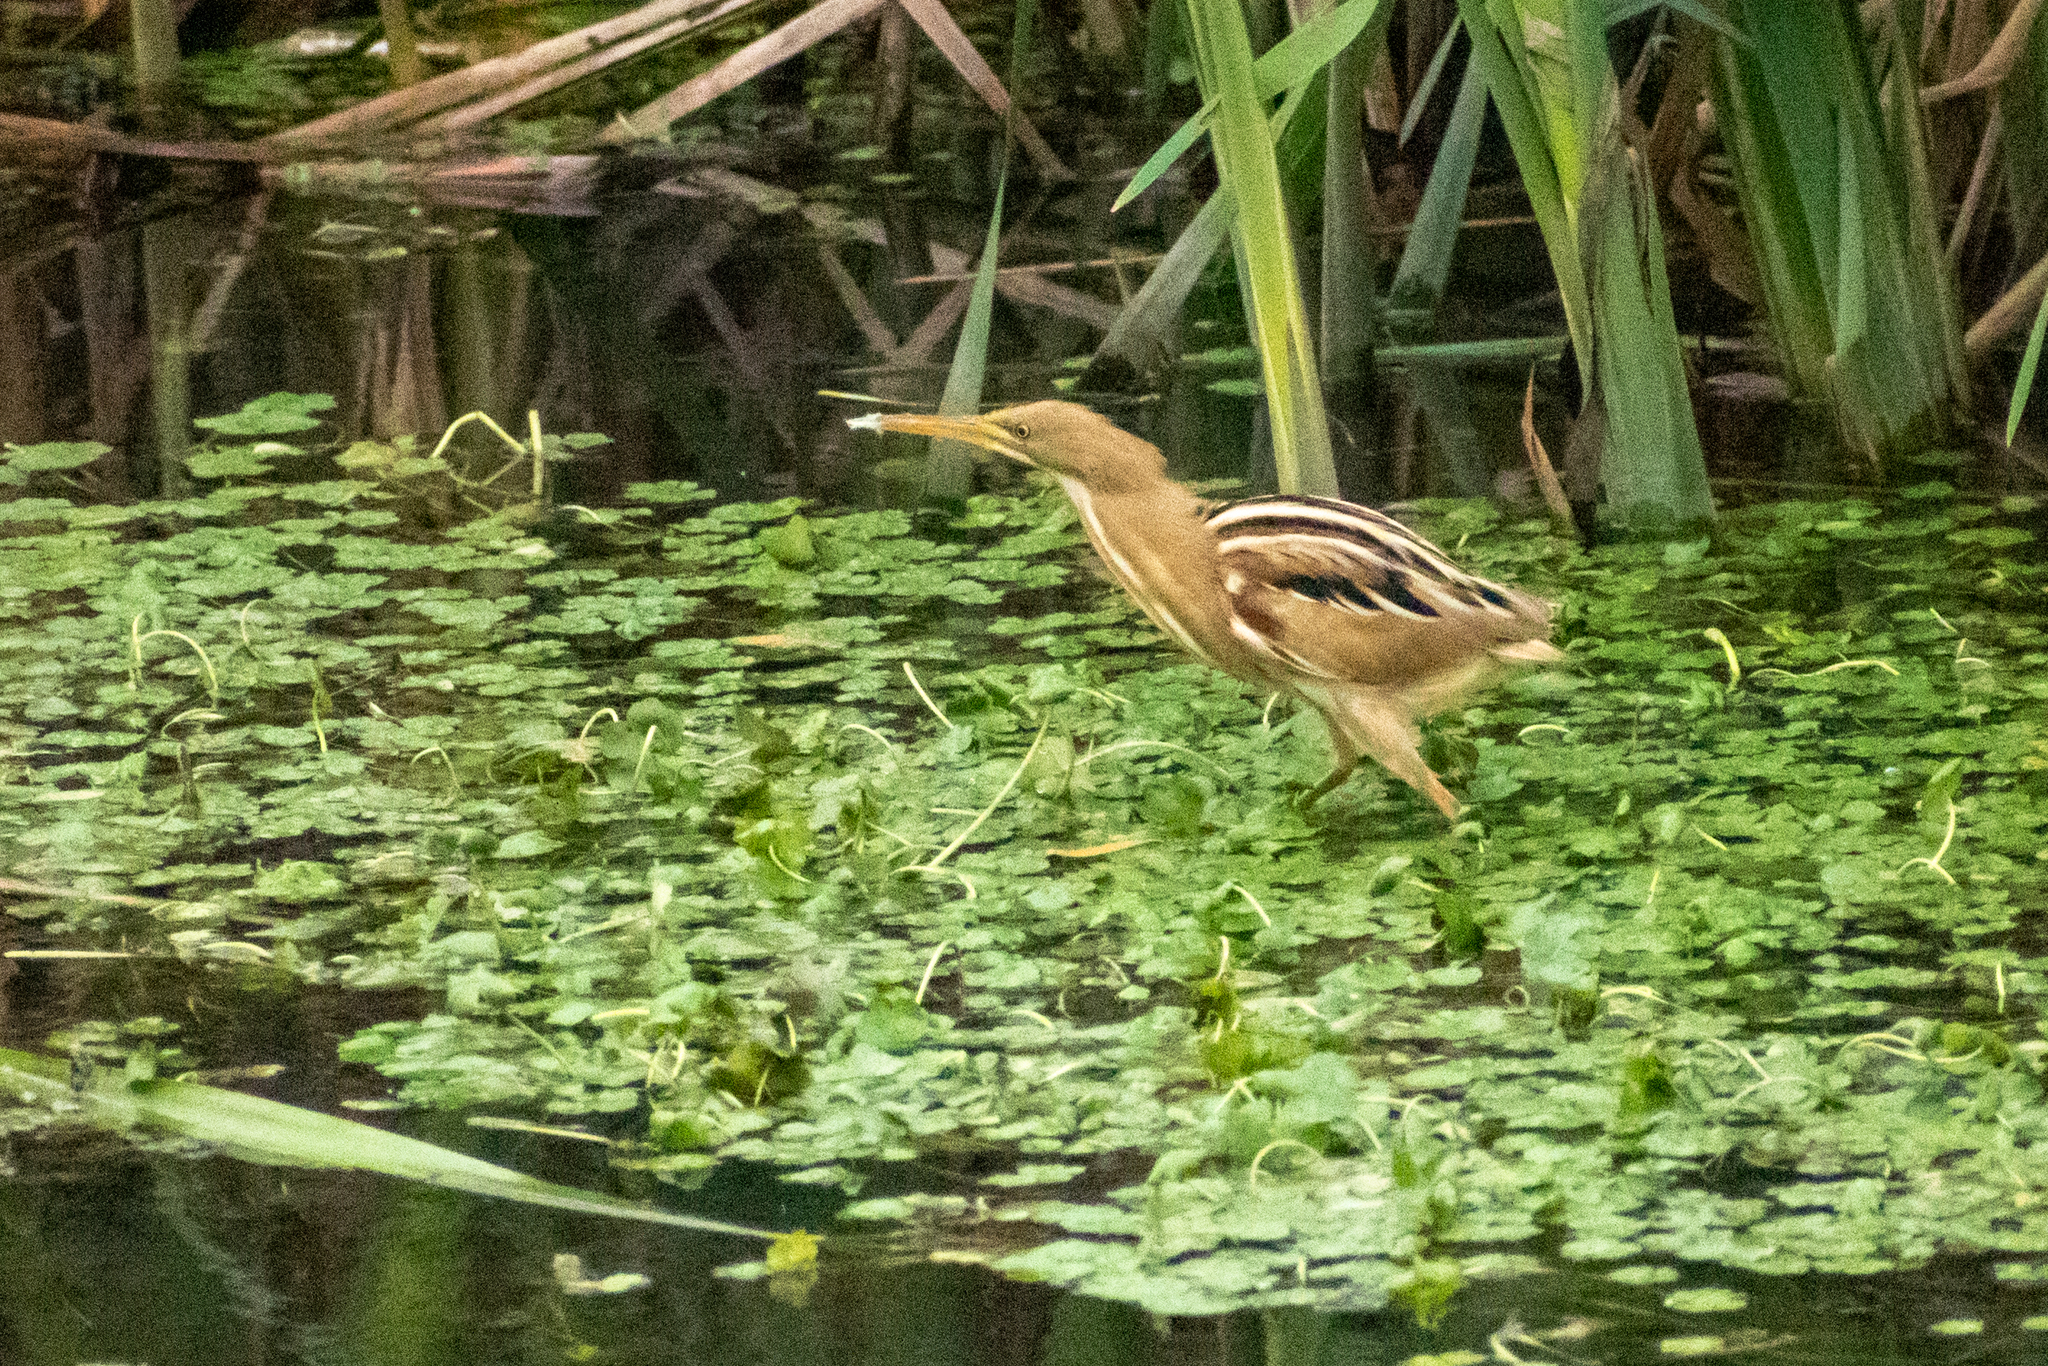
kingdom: Animalia
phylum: Chordata
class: Aves
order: Pelecaniformes
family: Ardeidae
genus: Ixobrychus
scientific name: Ixobrychus involucris
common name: Stripe-backed bittern
